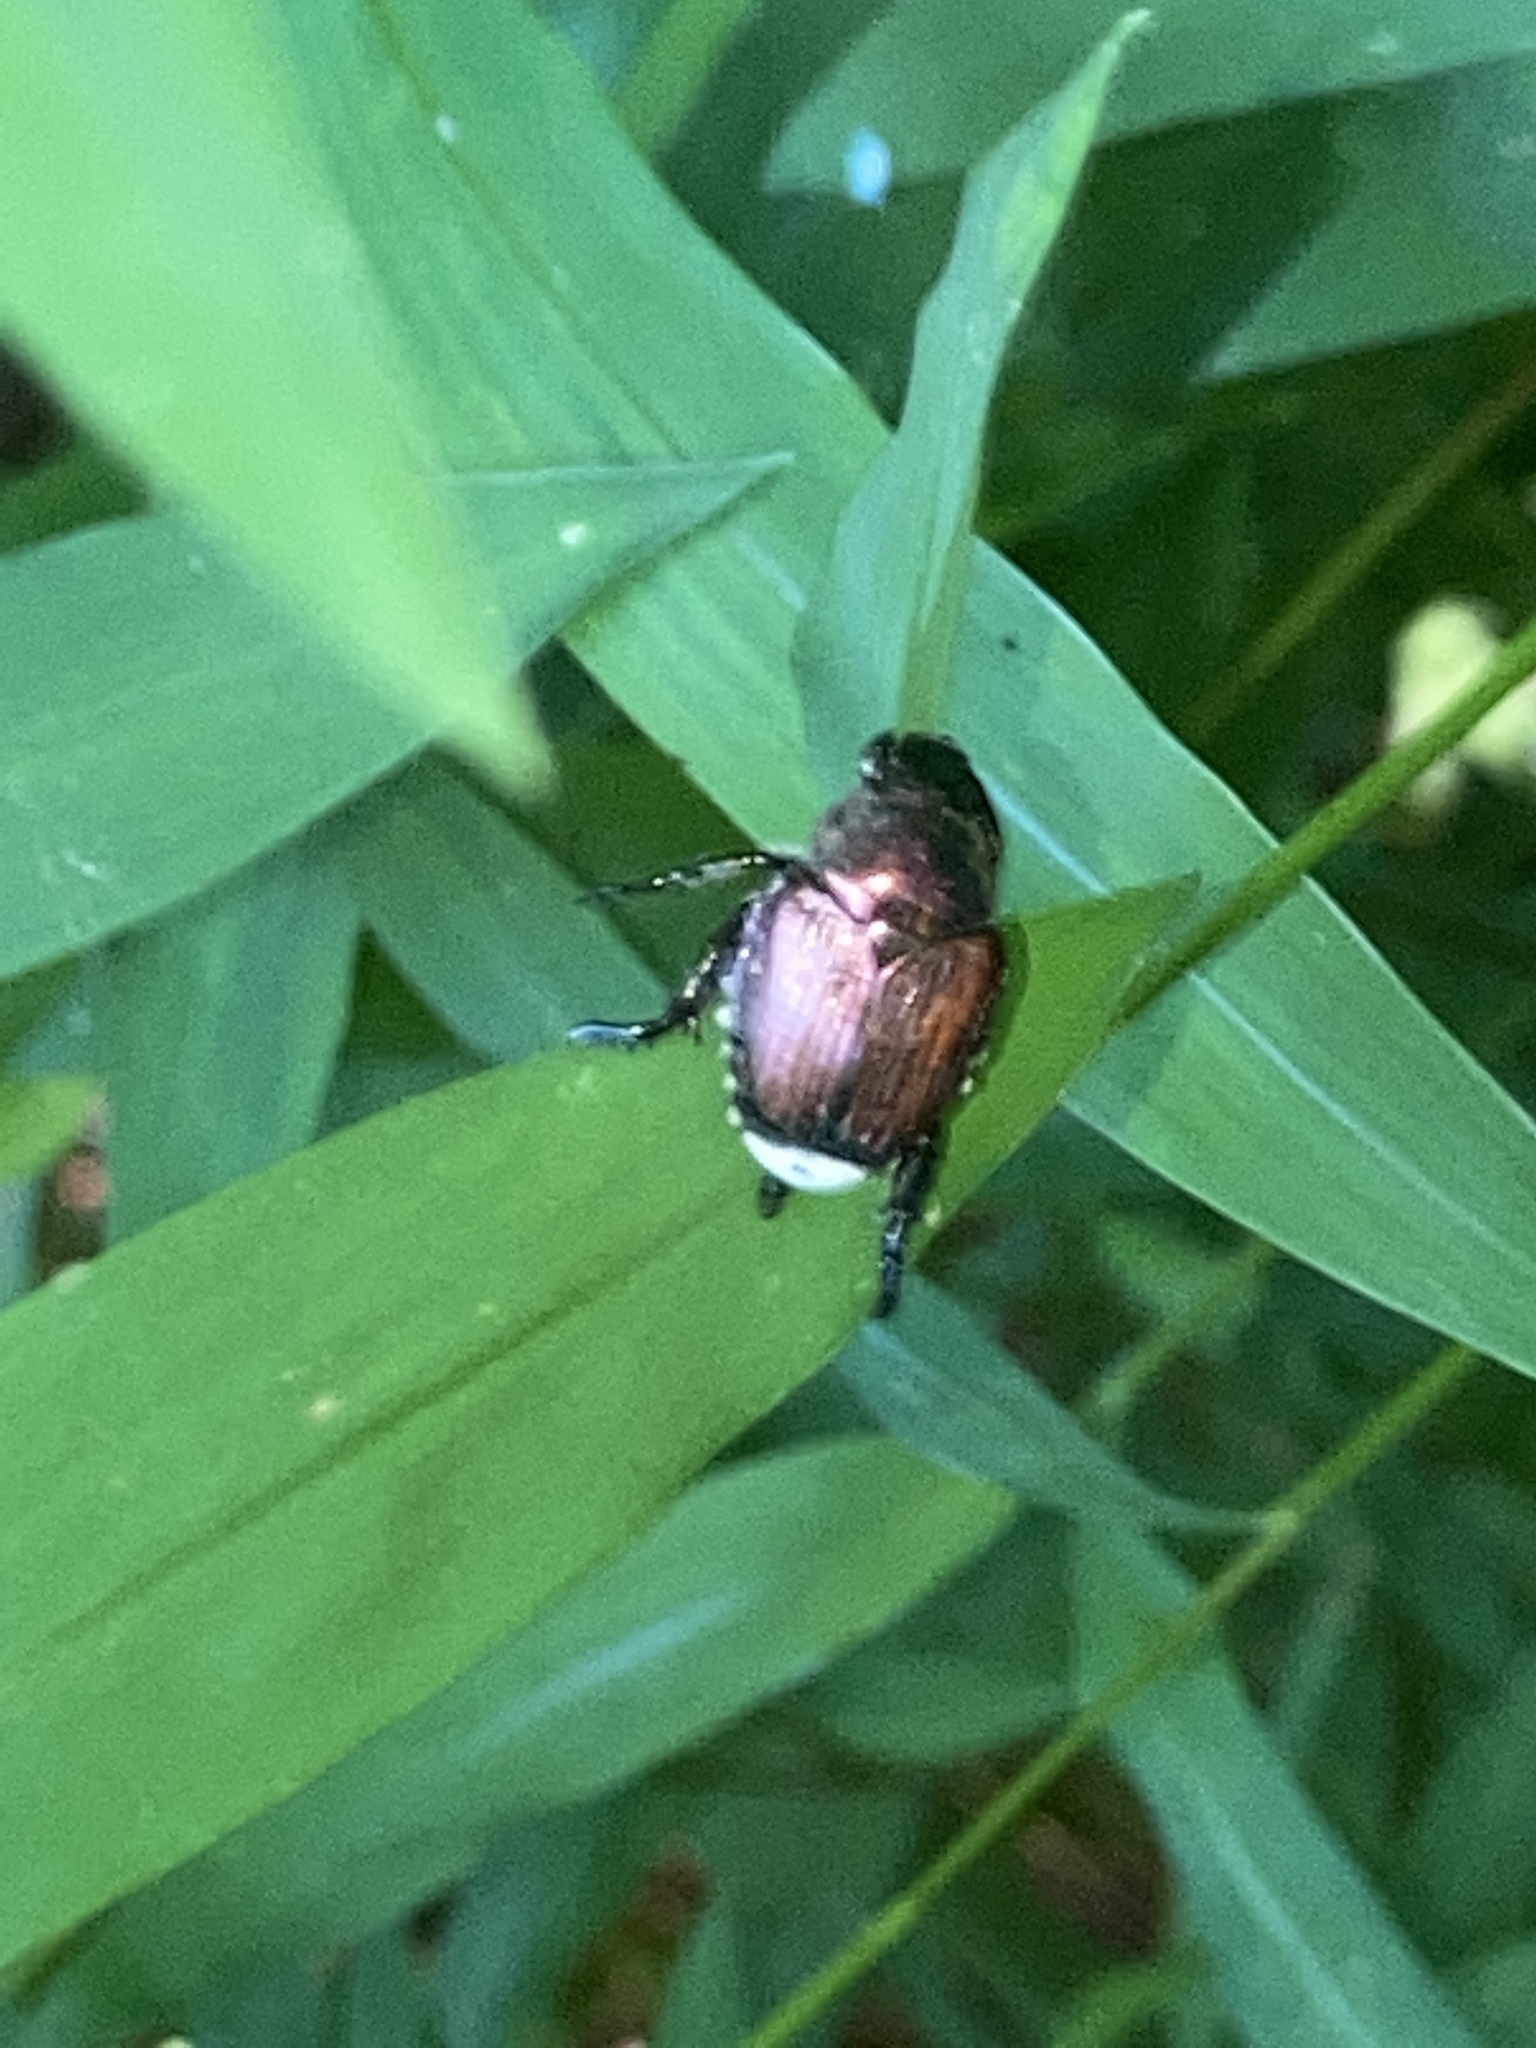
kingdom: Animalia
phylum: Arthropoda
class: Insecta
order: Coleoptera
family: Scarabaeidae
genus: Popillia
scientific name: Popillia japonica
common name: Japanese beetle
